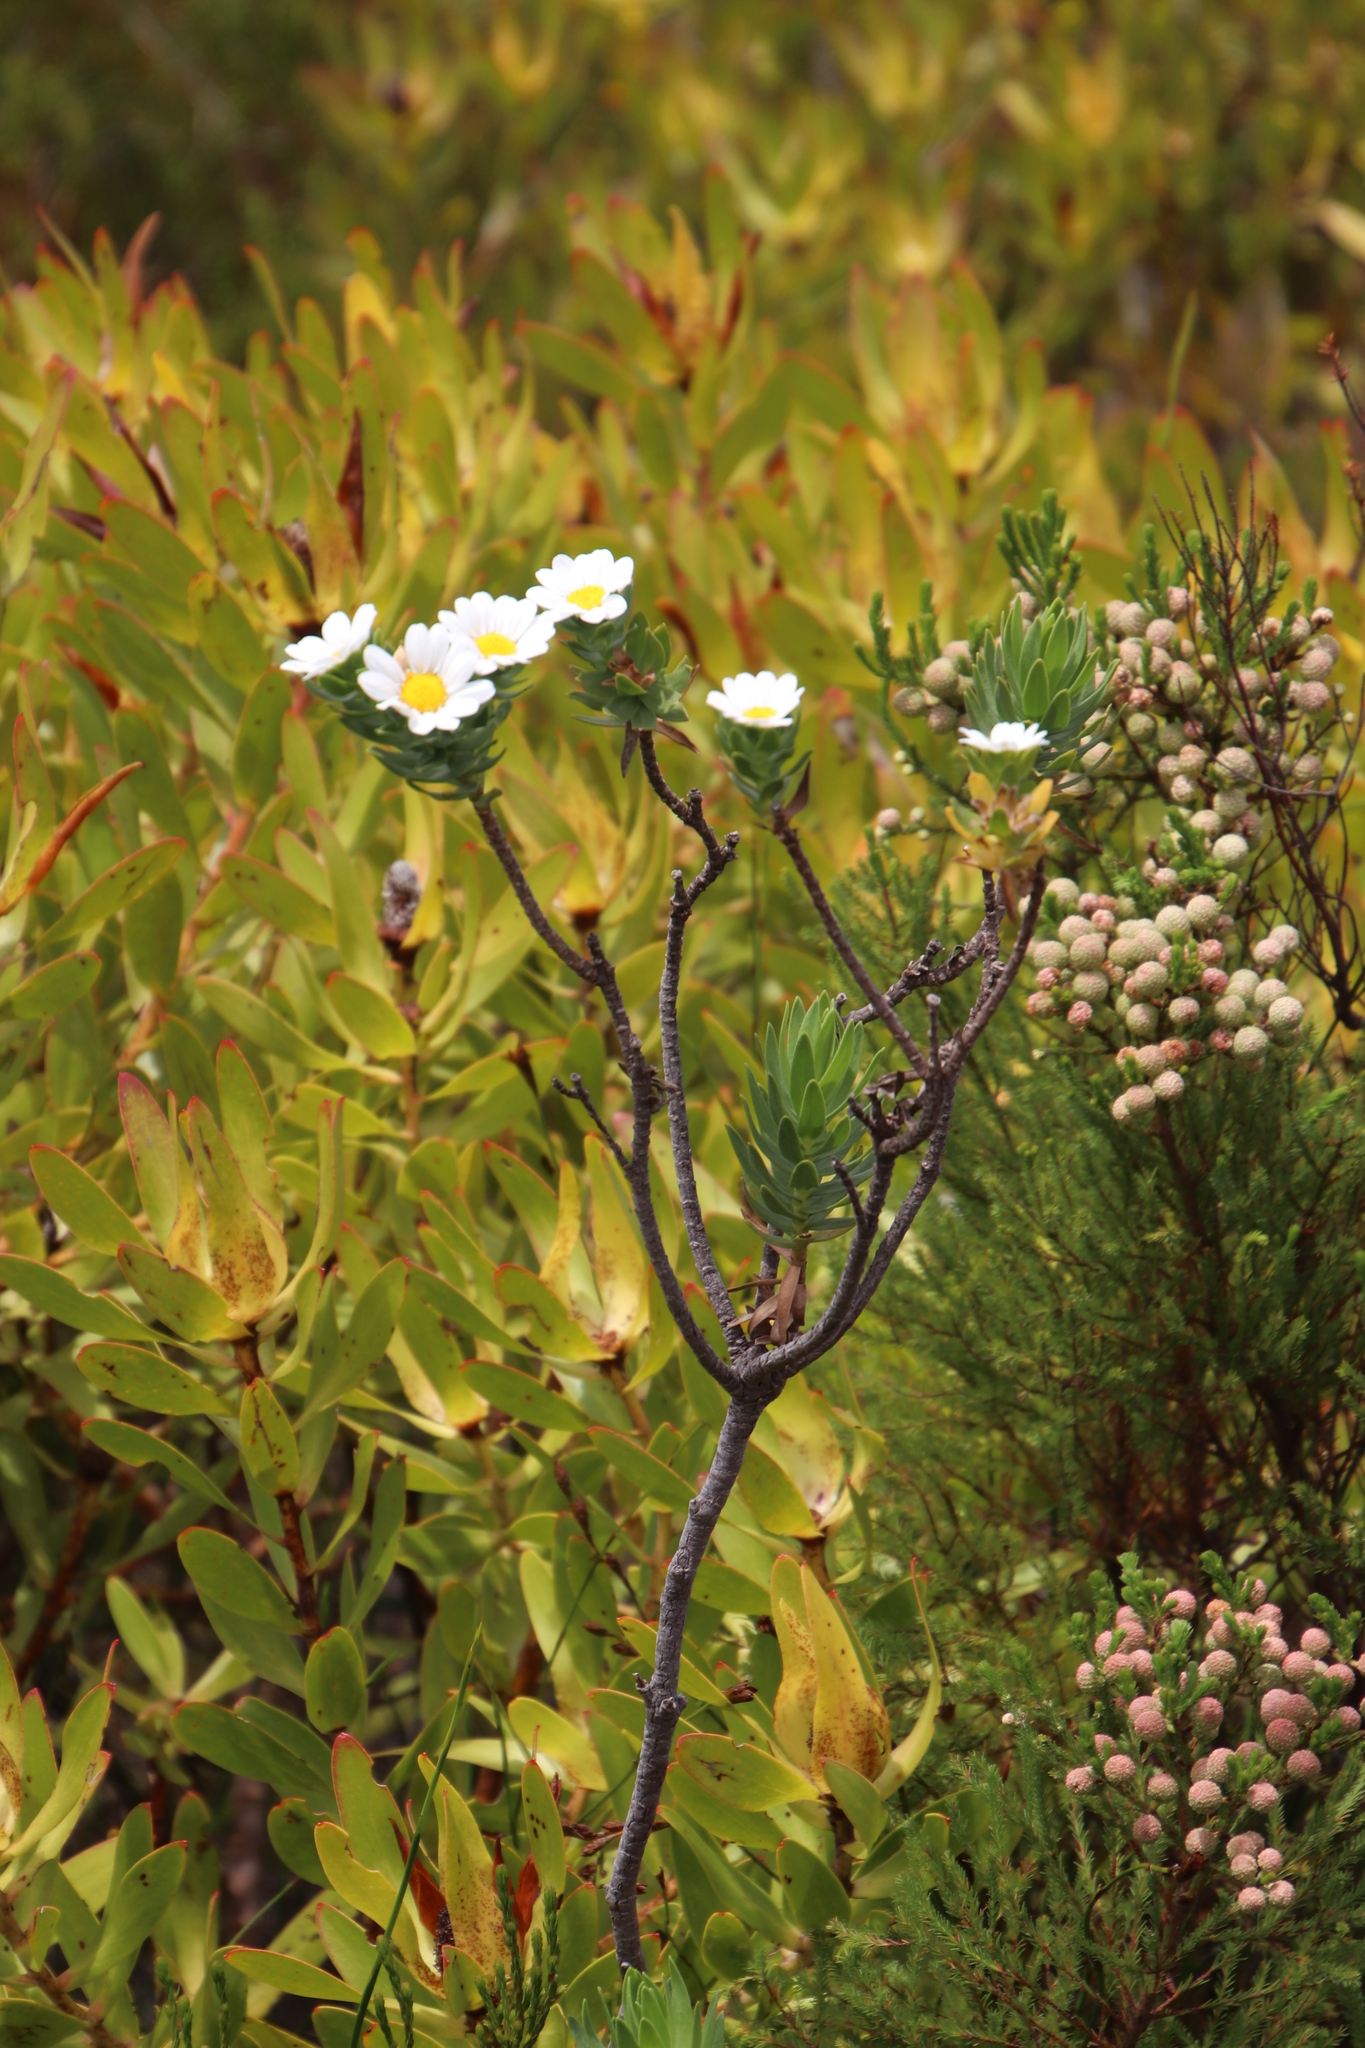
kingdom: Plantae
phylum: Tracheophyta
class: Magnoliopsida
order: Asterales
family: Asteraceae
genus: Osmitopsis
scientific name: Osmitopsis asteriscoides
